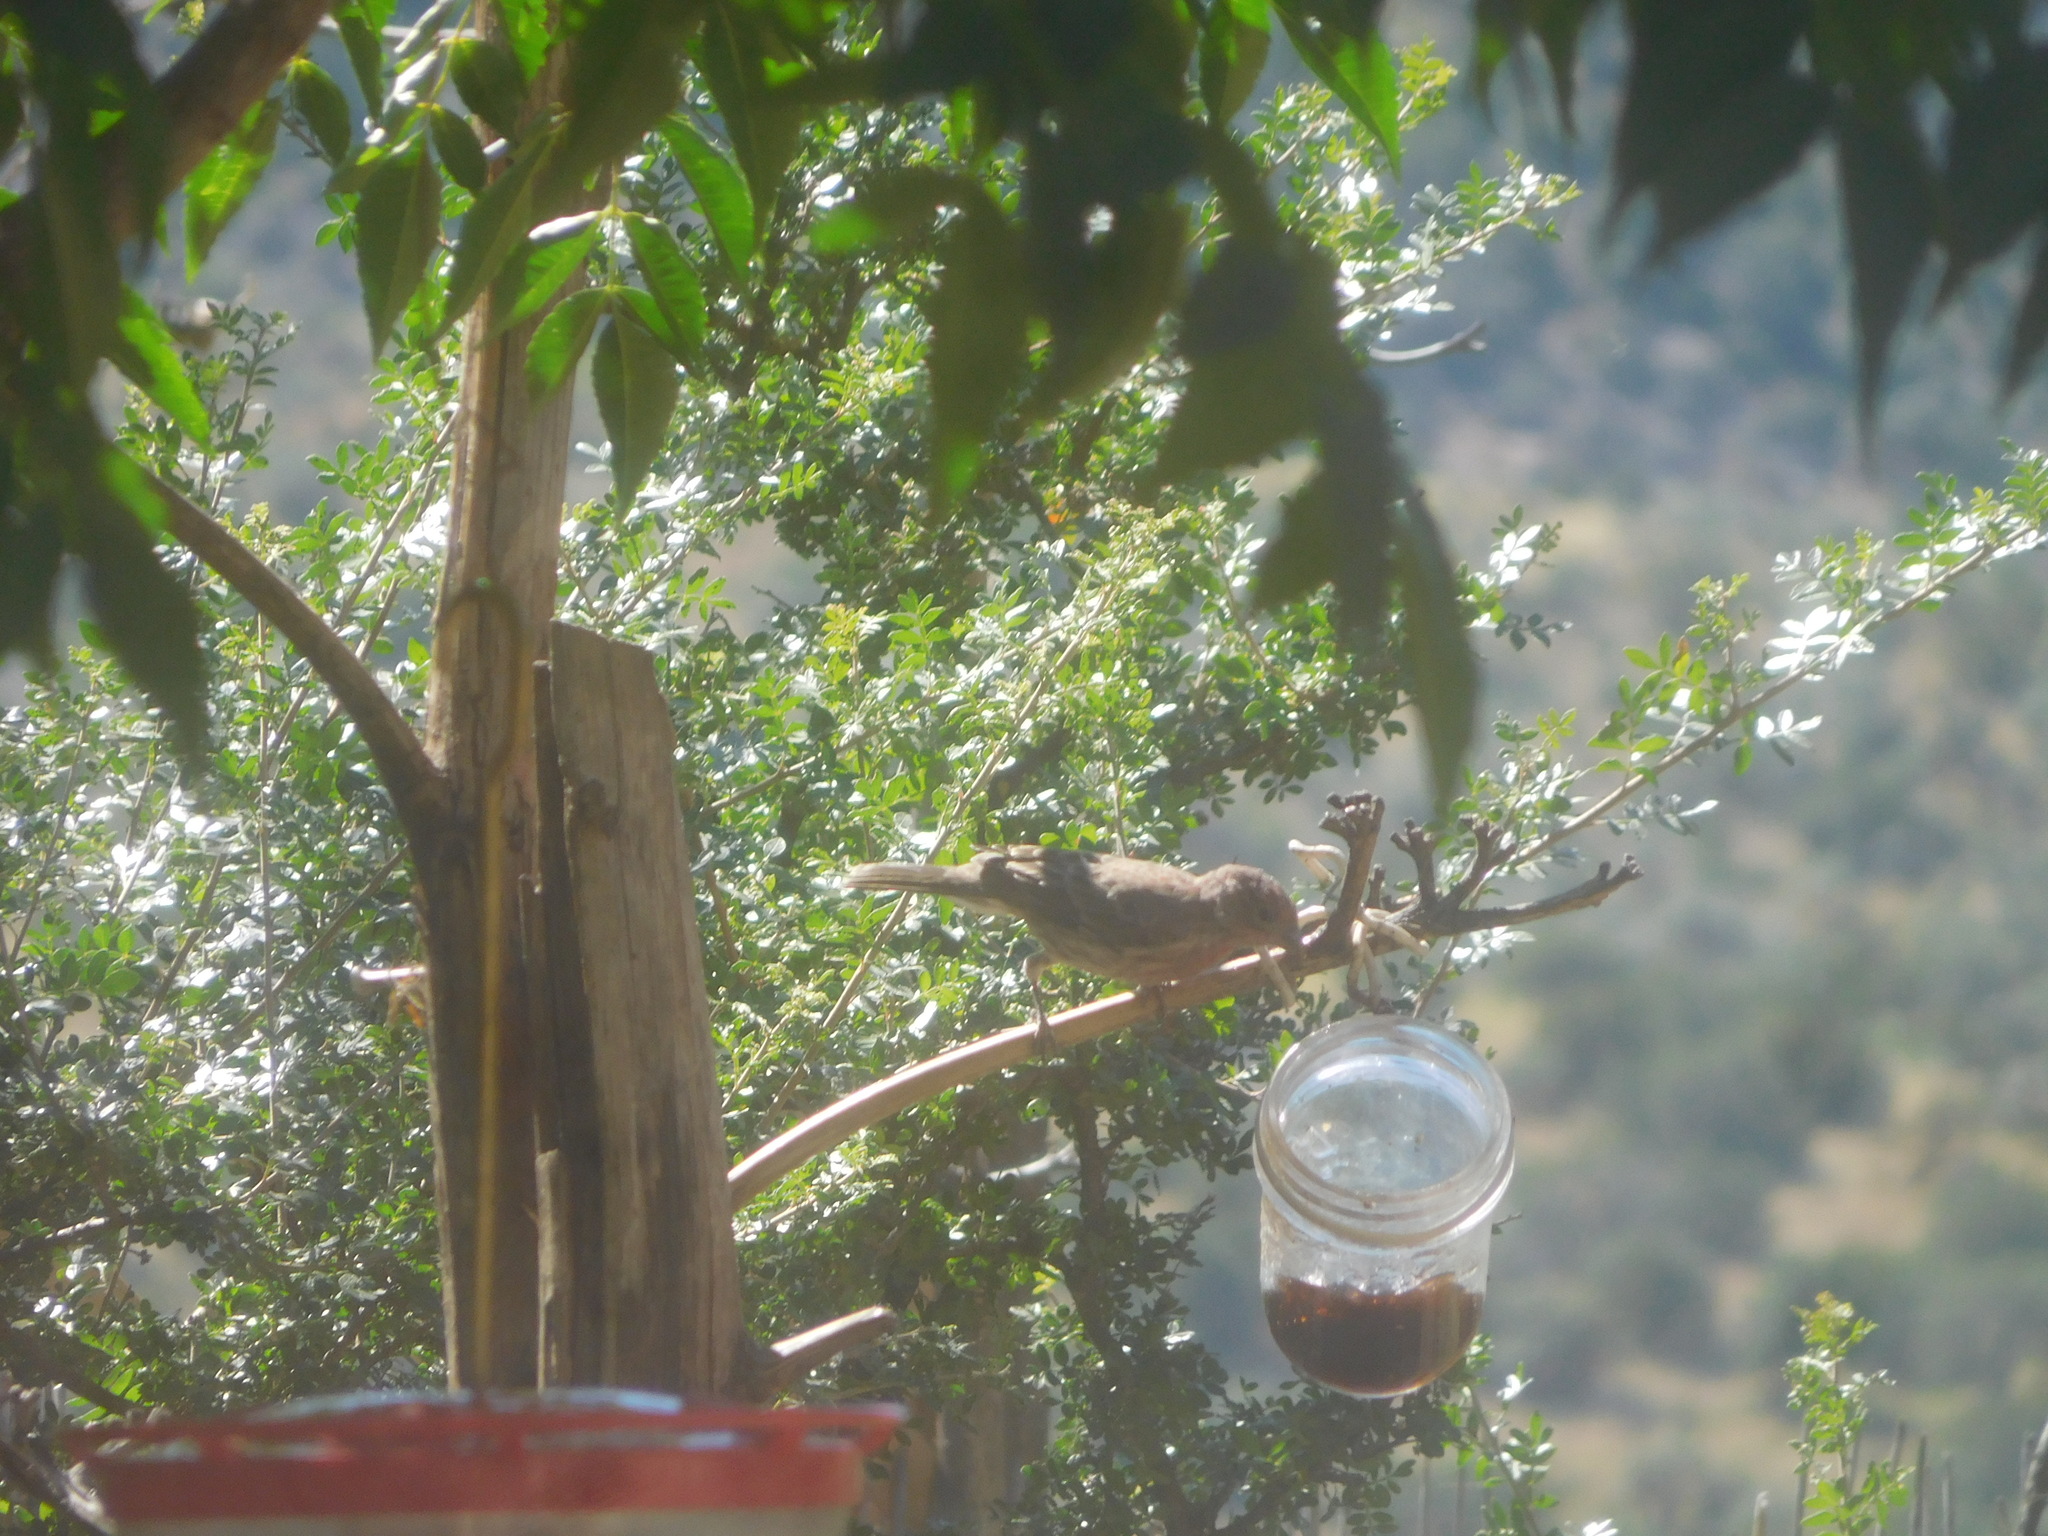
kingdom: Animalia
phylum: Chordata
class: Aves
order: Passeriformes
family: Fringillidae
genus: Haemorhous
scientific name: Haemorhous mexicanus
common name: House finch
